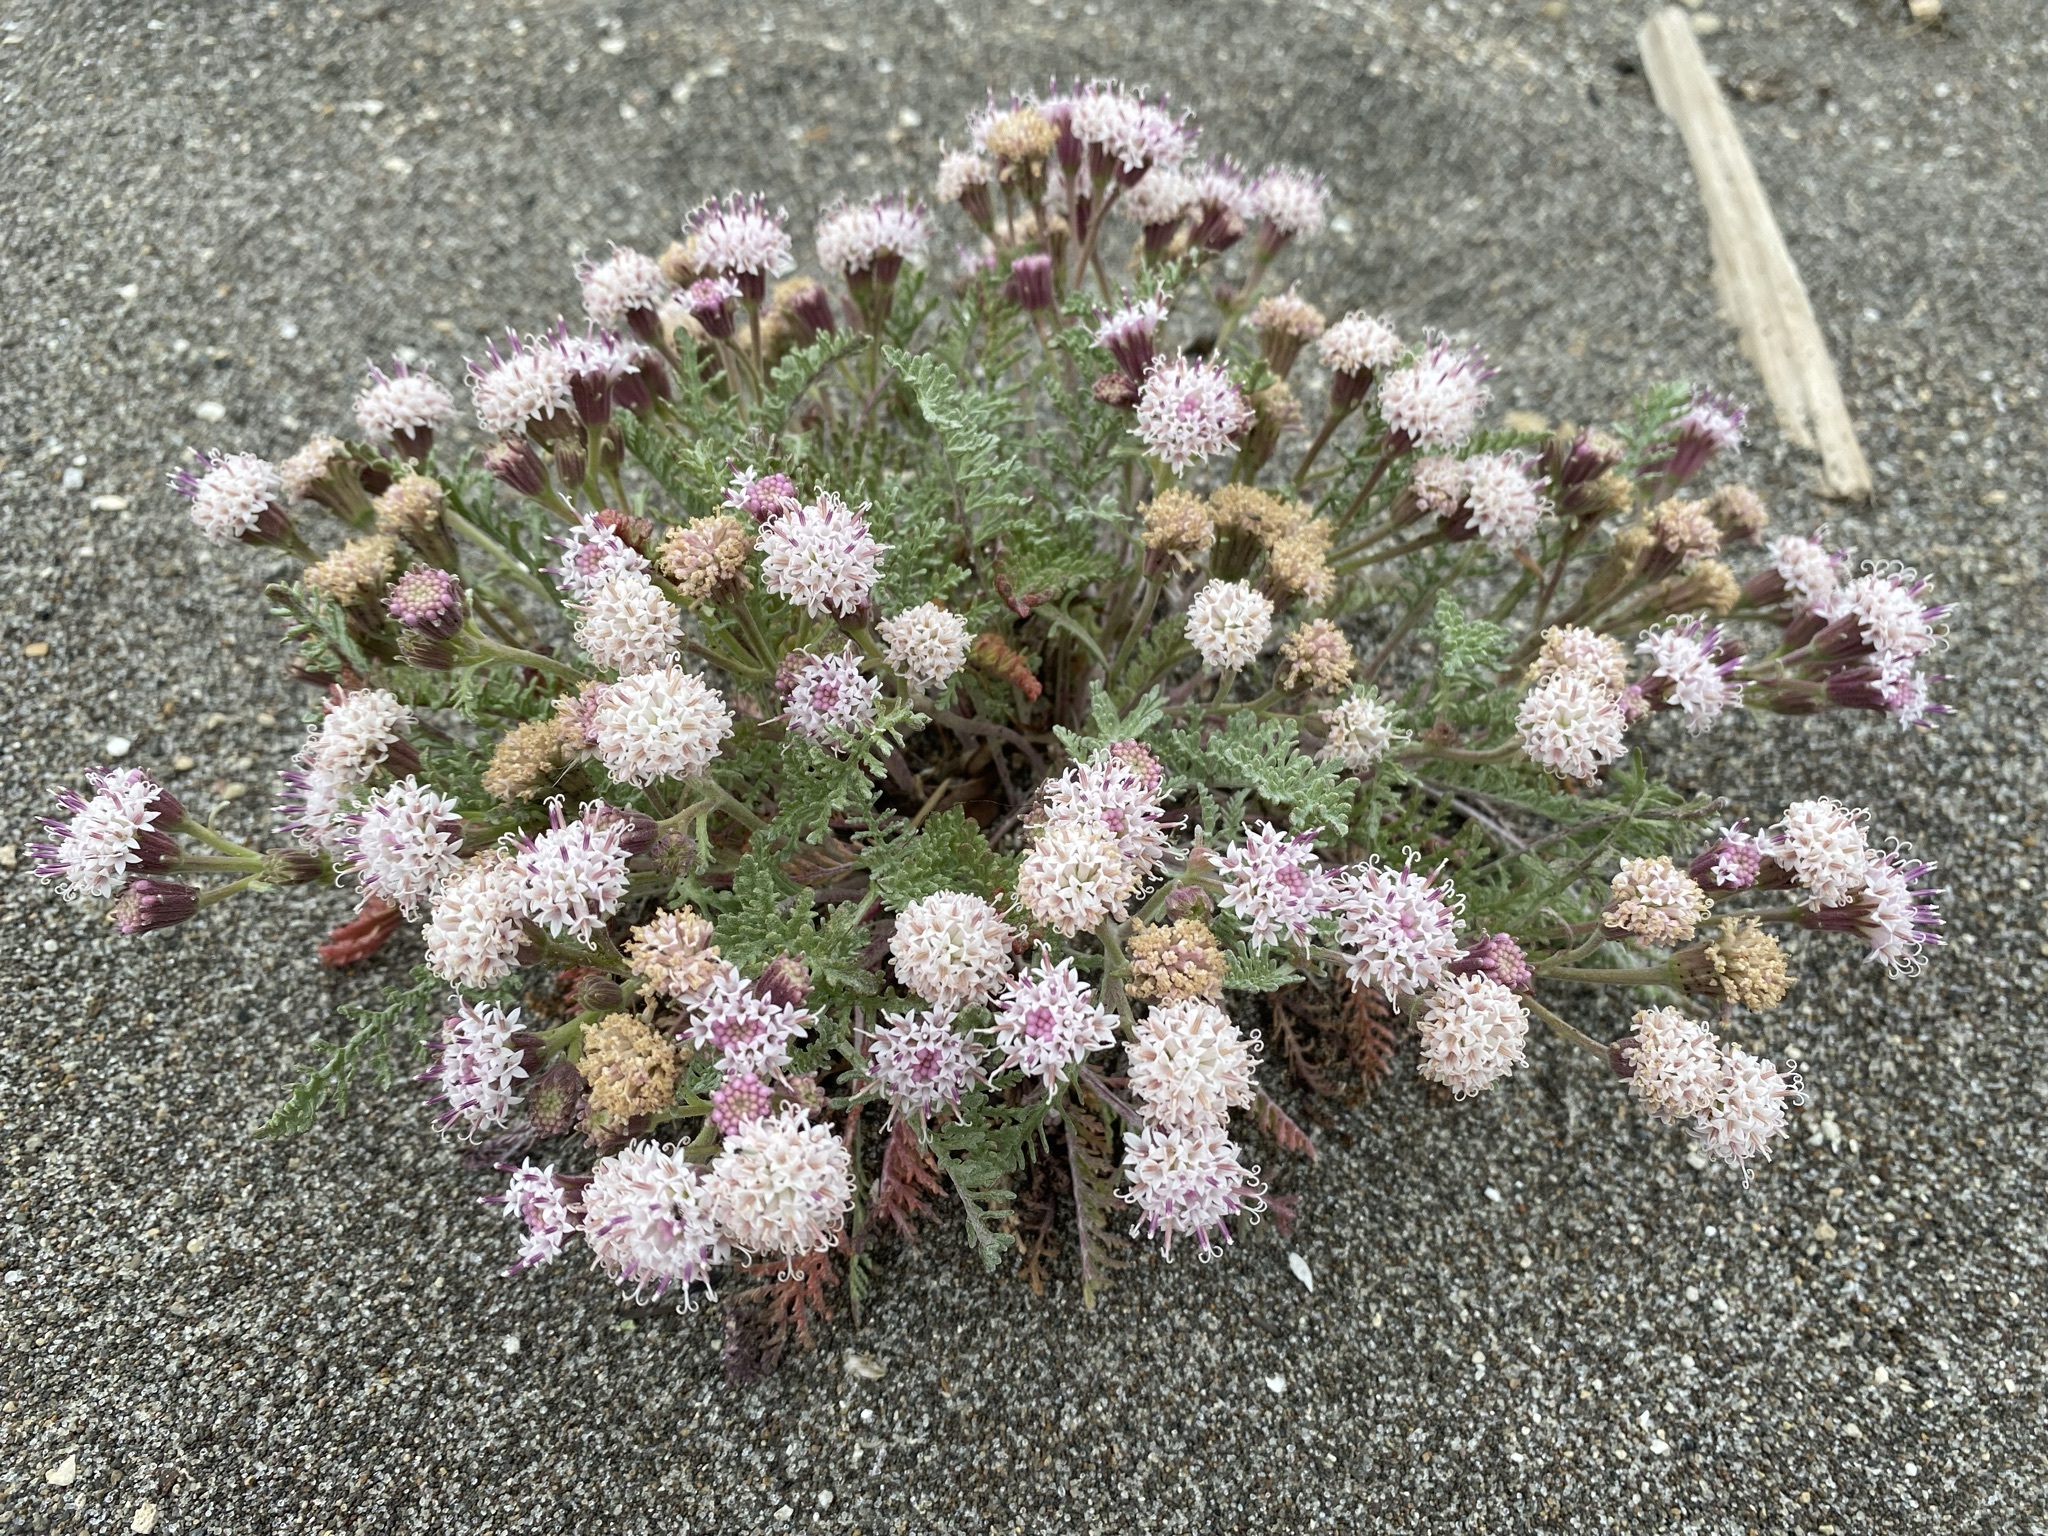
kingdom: Plantae
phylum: Tracheophyta
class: Magnoliopsida
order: Asterales
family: Asteraceae
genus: Chaenactis
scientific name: Chaenactis douglasii
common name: Hoary pincushion
